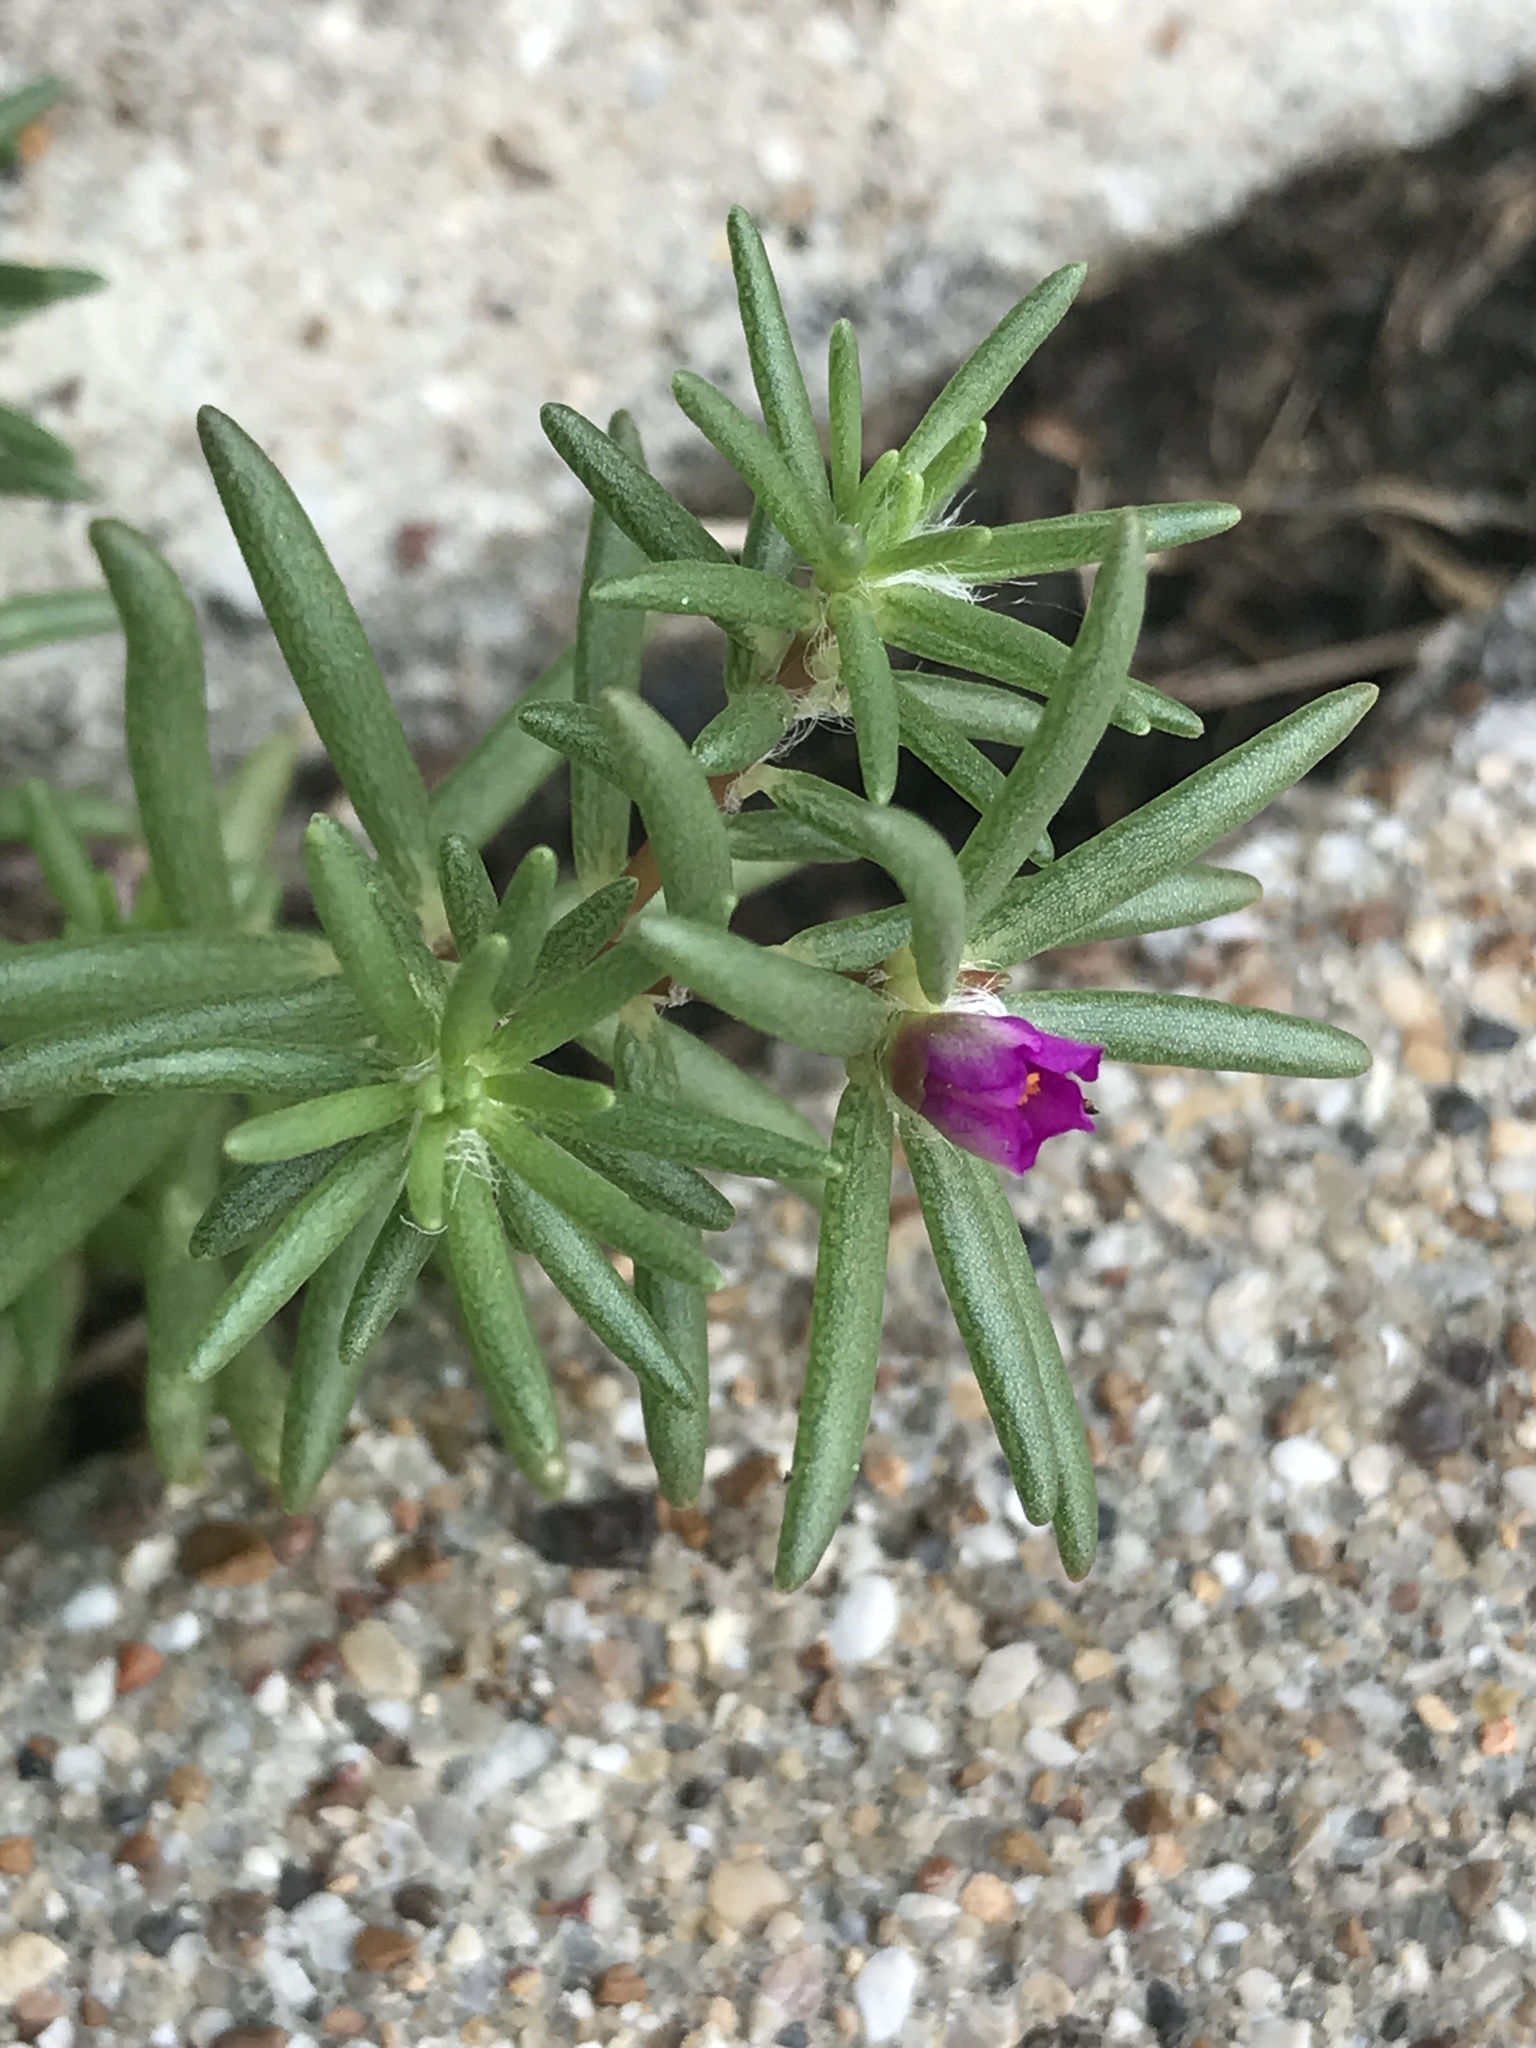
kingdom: Plantae
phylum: Tracheophyta
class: Magnoliopsida
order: Caryophyllales
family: Portulacaceae
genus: Portulaca
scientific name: Portulaca pilosa
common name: Kiss me quick
